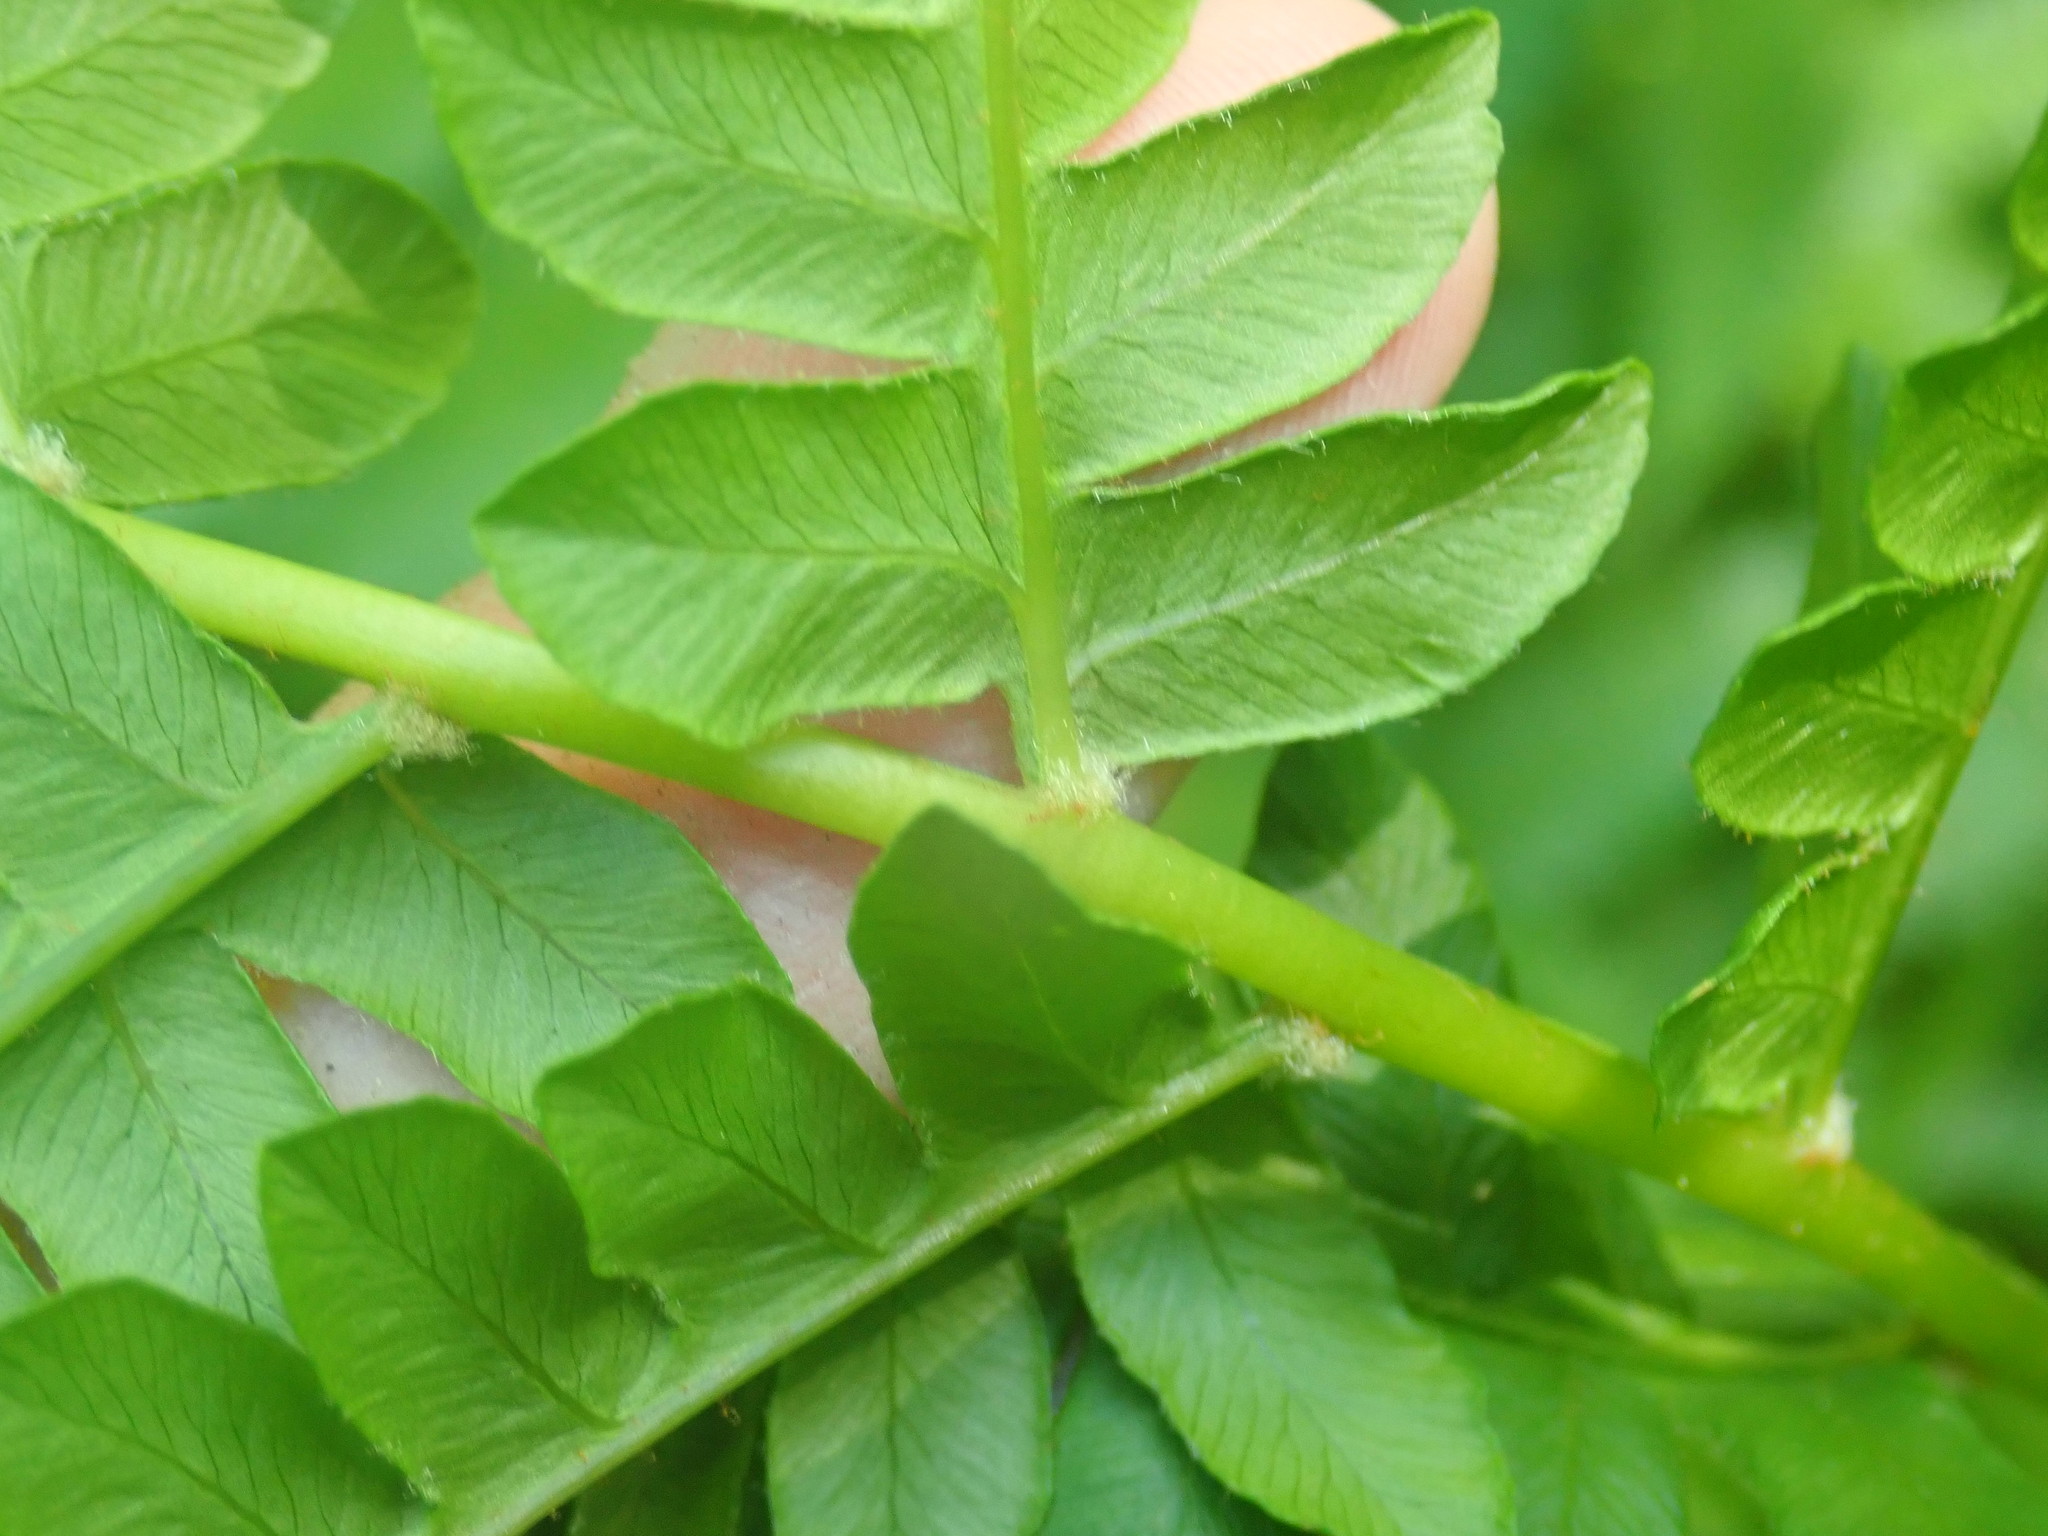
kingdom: Plantae
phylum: Tracheophyta
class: Polypodiopsida
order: Osmundales
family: Osmundaceae
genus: Osmundastrum
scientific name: Osmundastrum cinnamomeum
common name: Cinnamon fern
